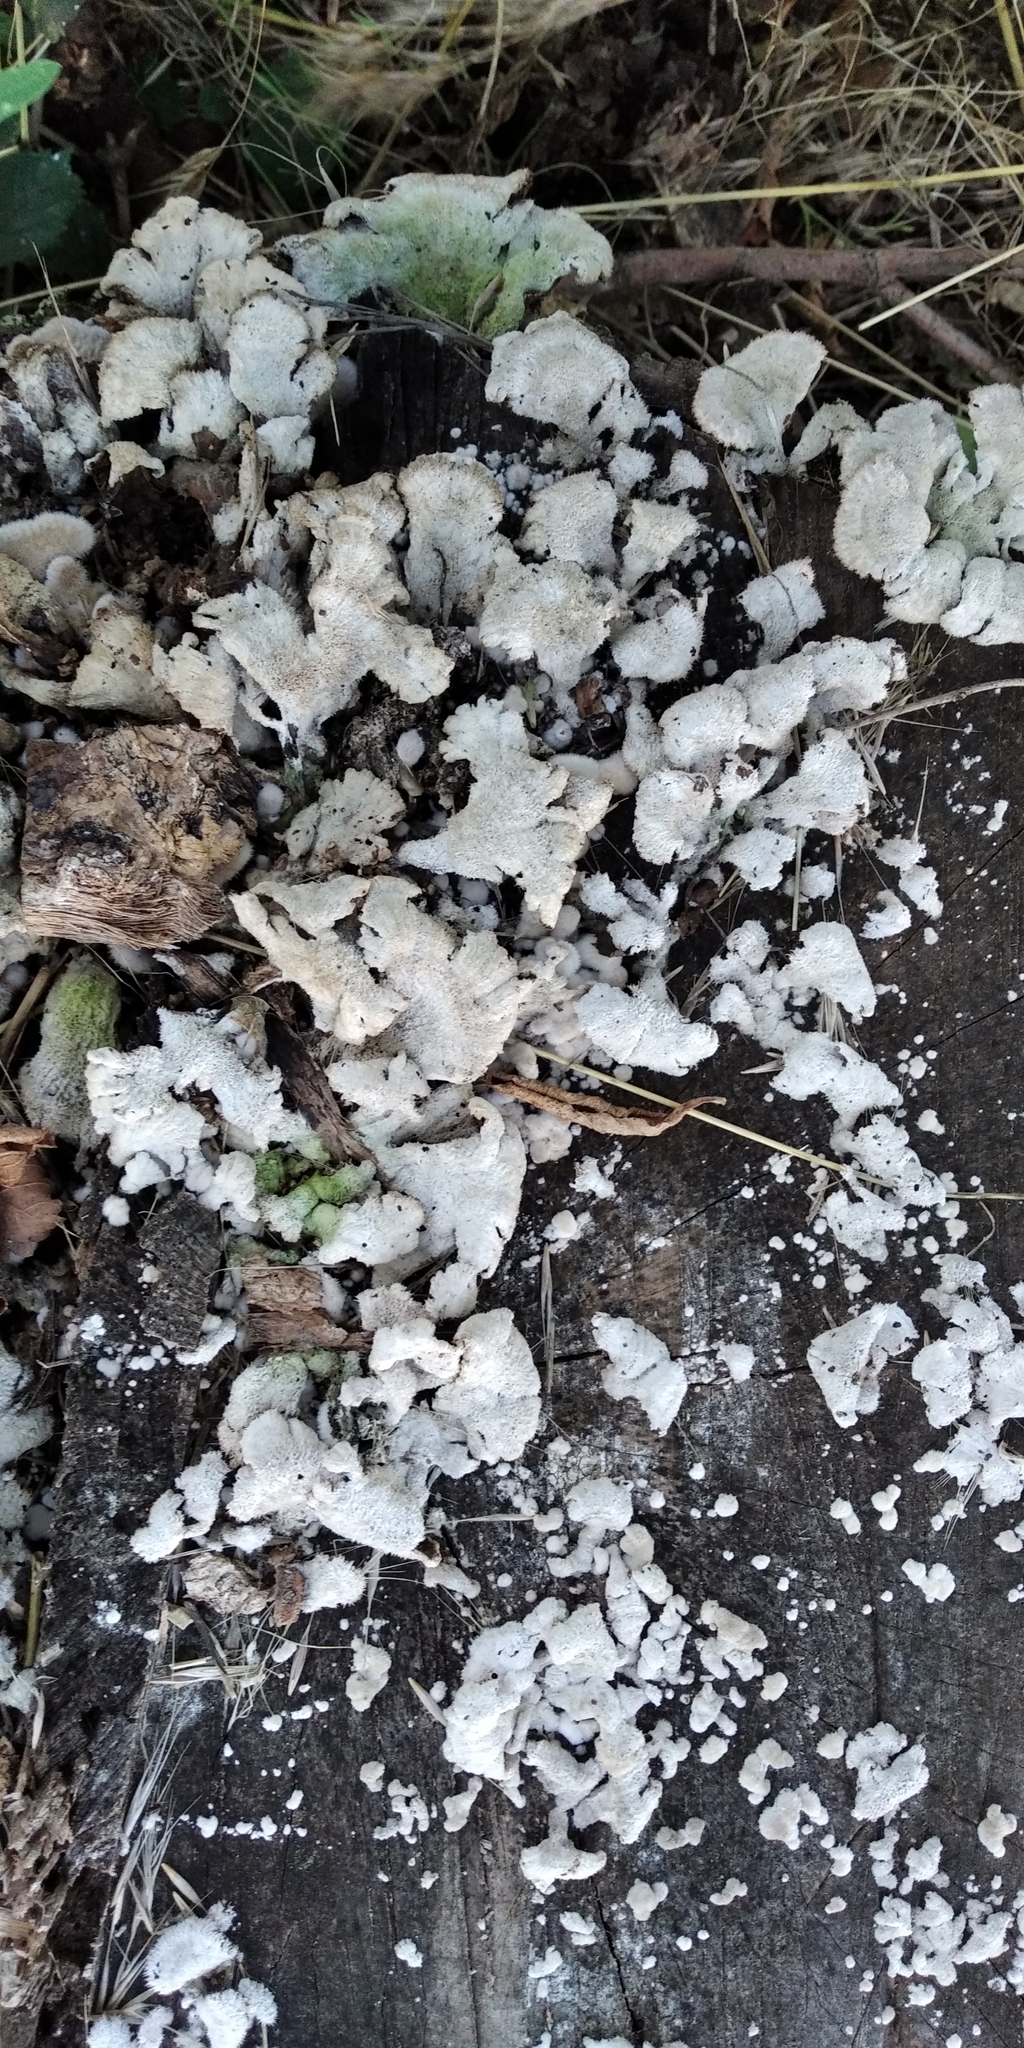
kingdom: Fungi
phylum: Basidiomycota
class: Agaricomycetes
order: Agaricales
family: Schizophyllaceae
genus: Schizophyllum
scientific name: Schizophyllum commune
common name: Common porecrust
